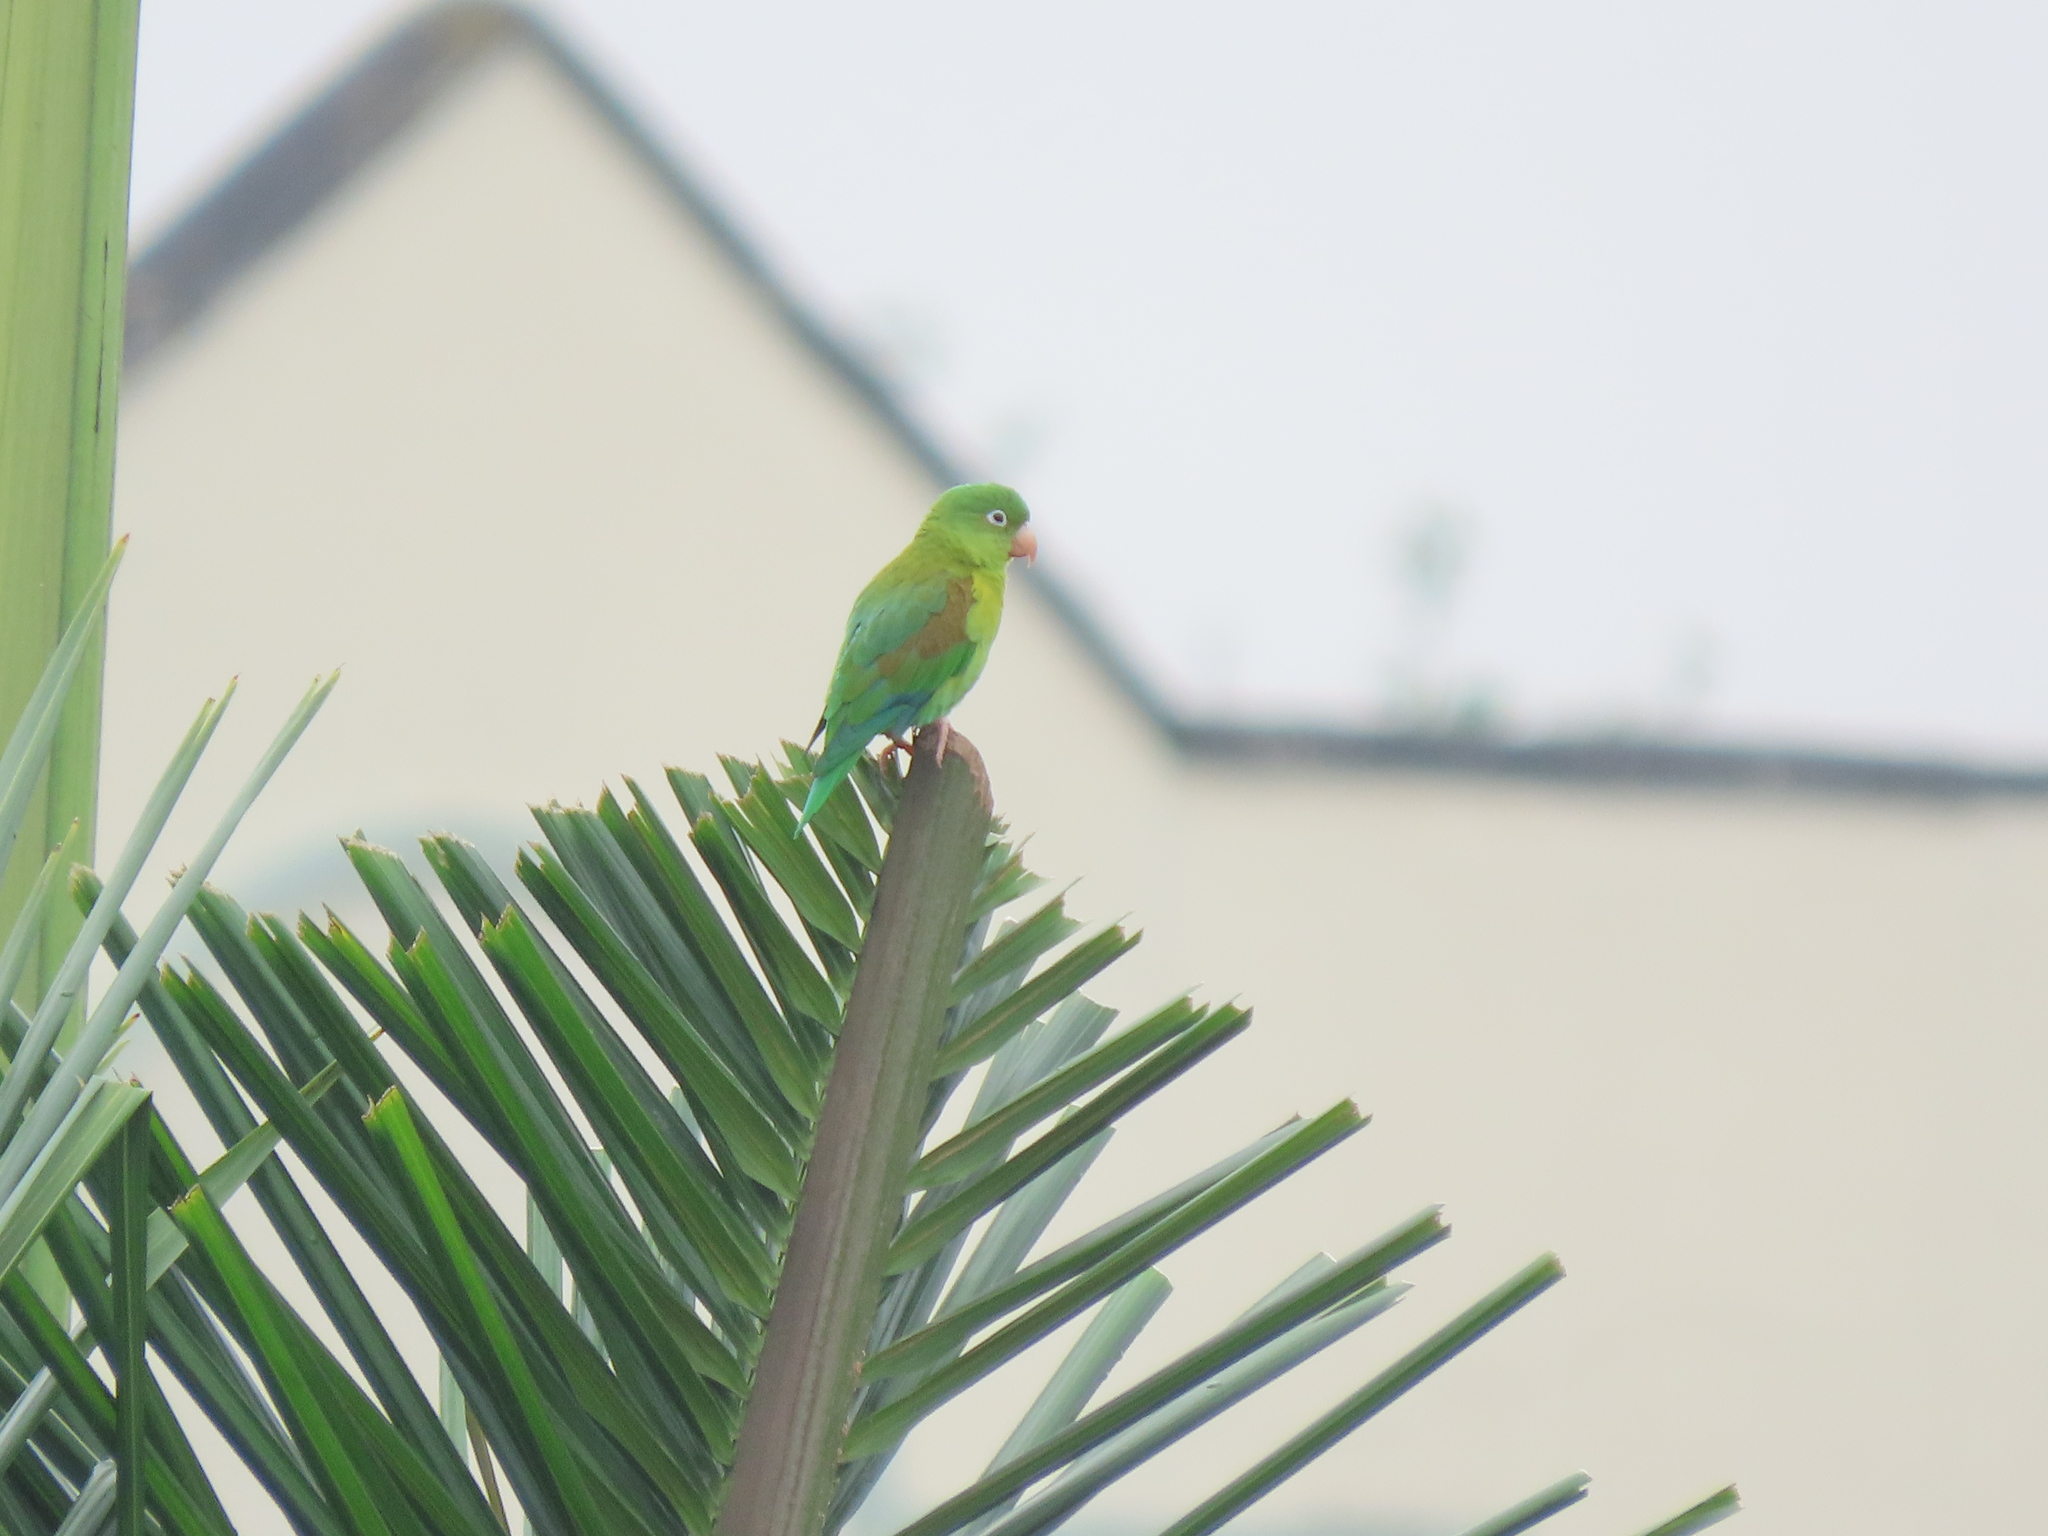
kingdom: Animalia
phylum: Chordata
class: Aves
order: Psittaciformes
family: Psittacidae
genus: Brotogeris
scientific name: Brotogeris jugularis
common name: Orange-chinned parakeet
